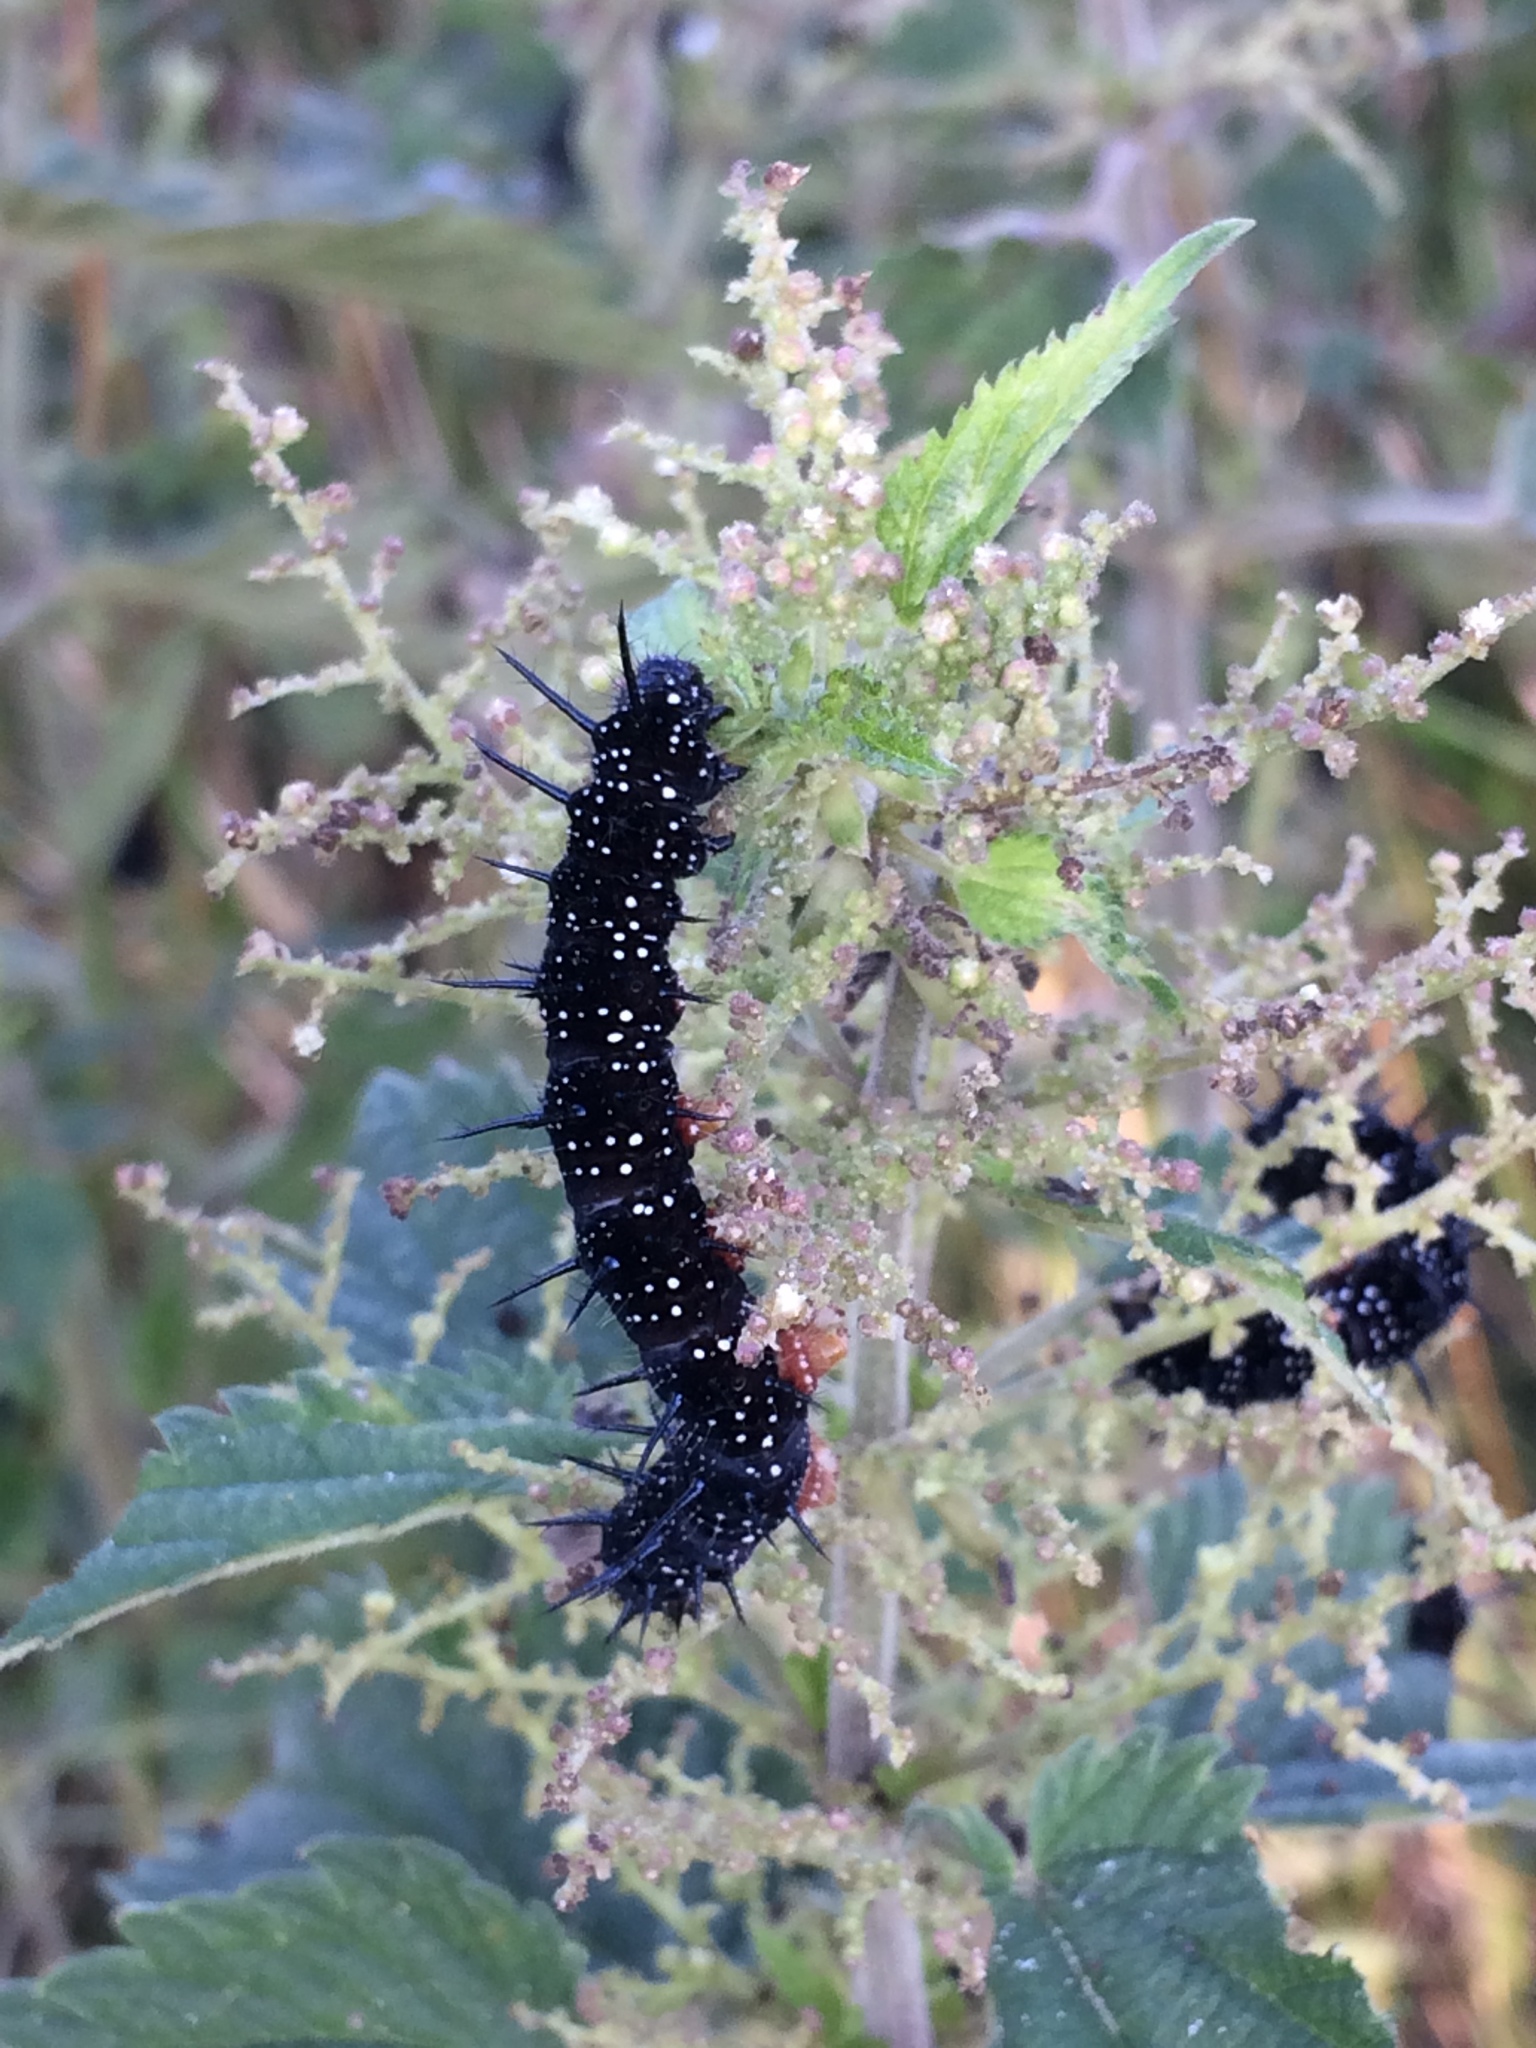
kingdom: Animalia
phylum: Arthropoda
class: Insecta
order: Lepidoptera
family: Nymphalidae
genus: Aglais
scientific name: Aglais io
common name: Peacock
